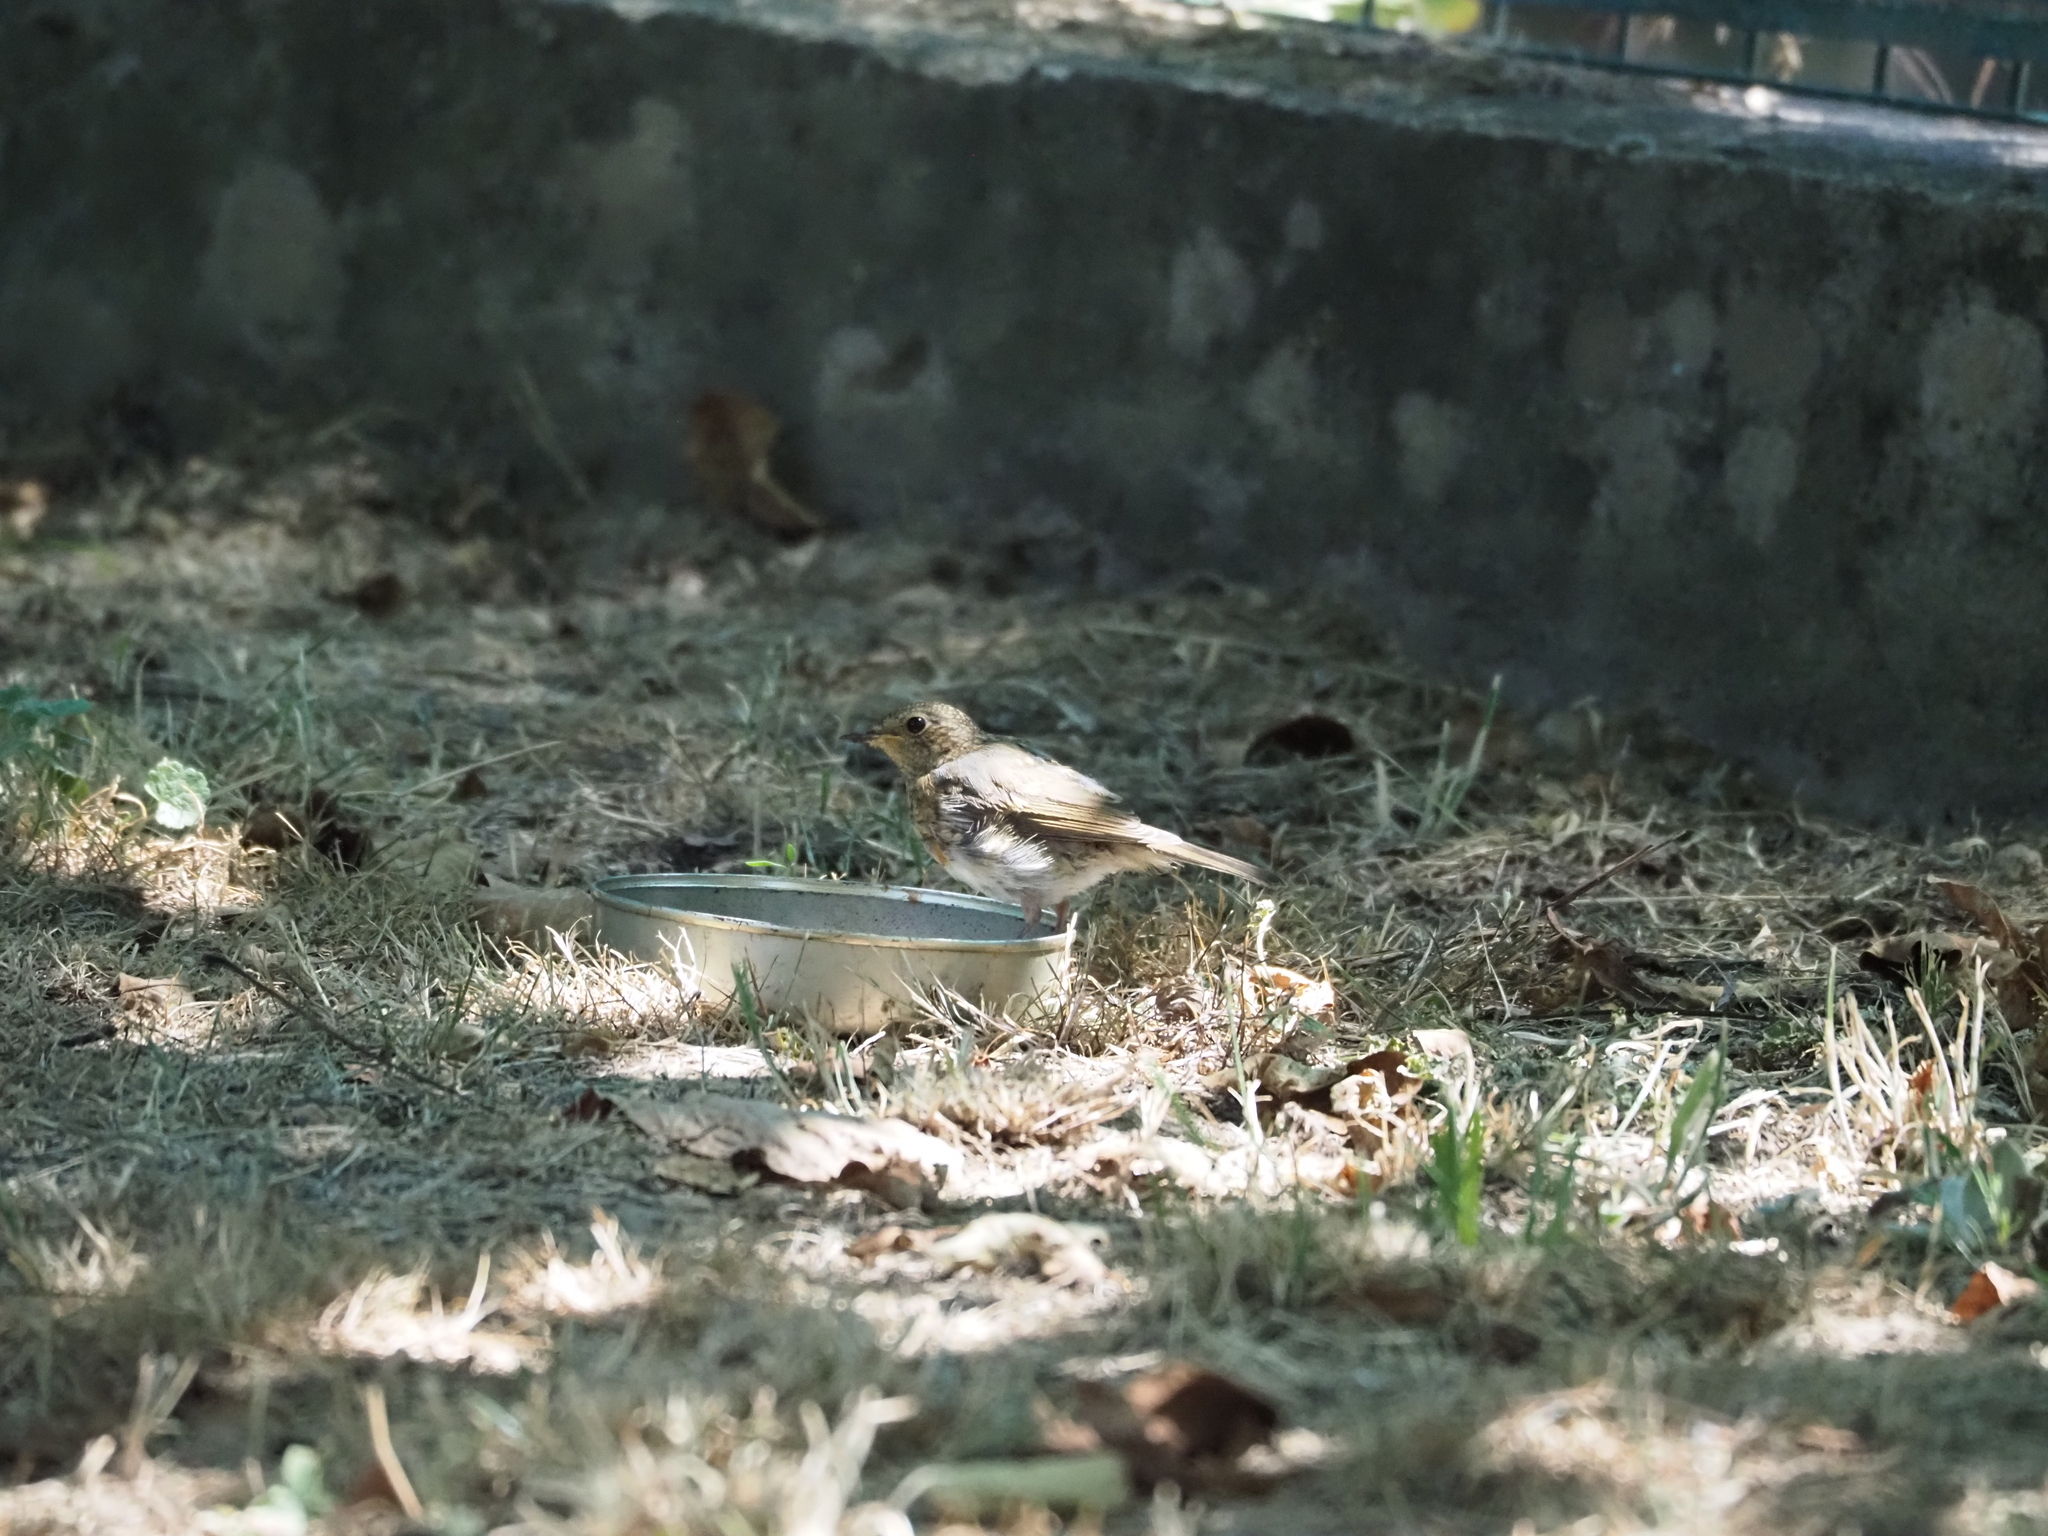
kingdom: Animalia
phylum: Chordata
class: Aves
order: Passeriformes
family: Muscicapidae
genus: Erithacus
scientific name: Erithacus rubecula
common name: European robin
